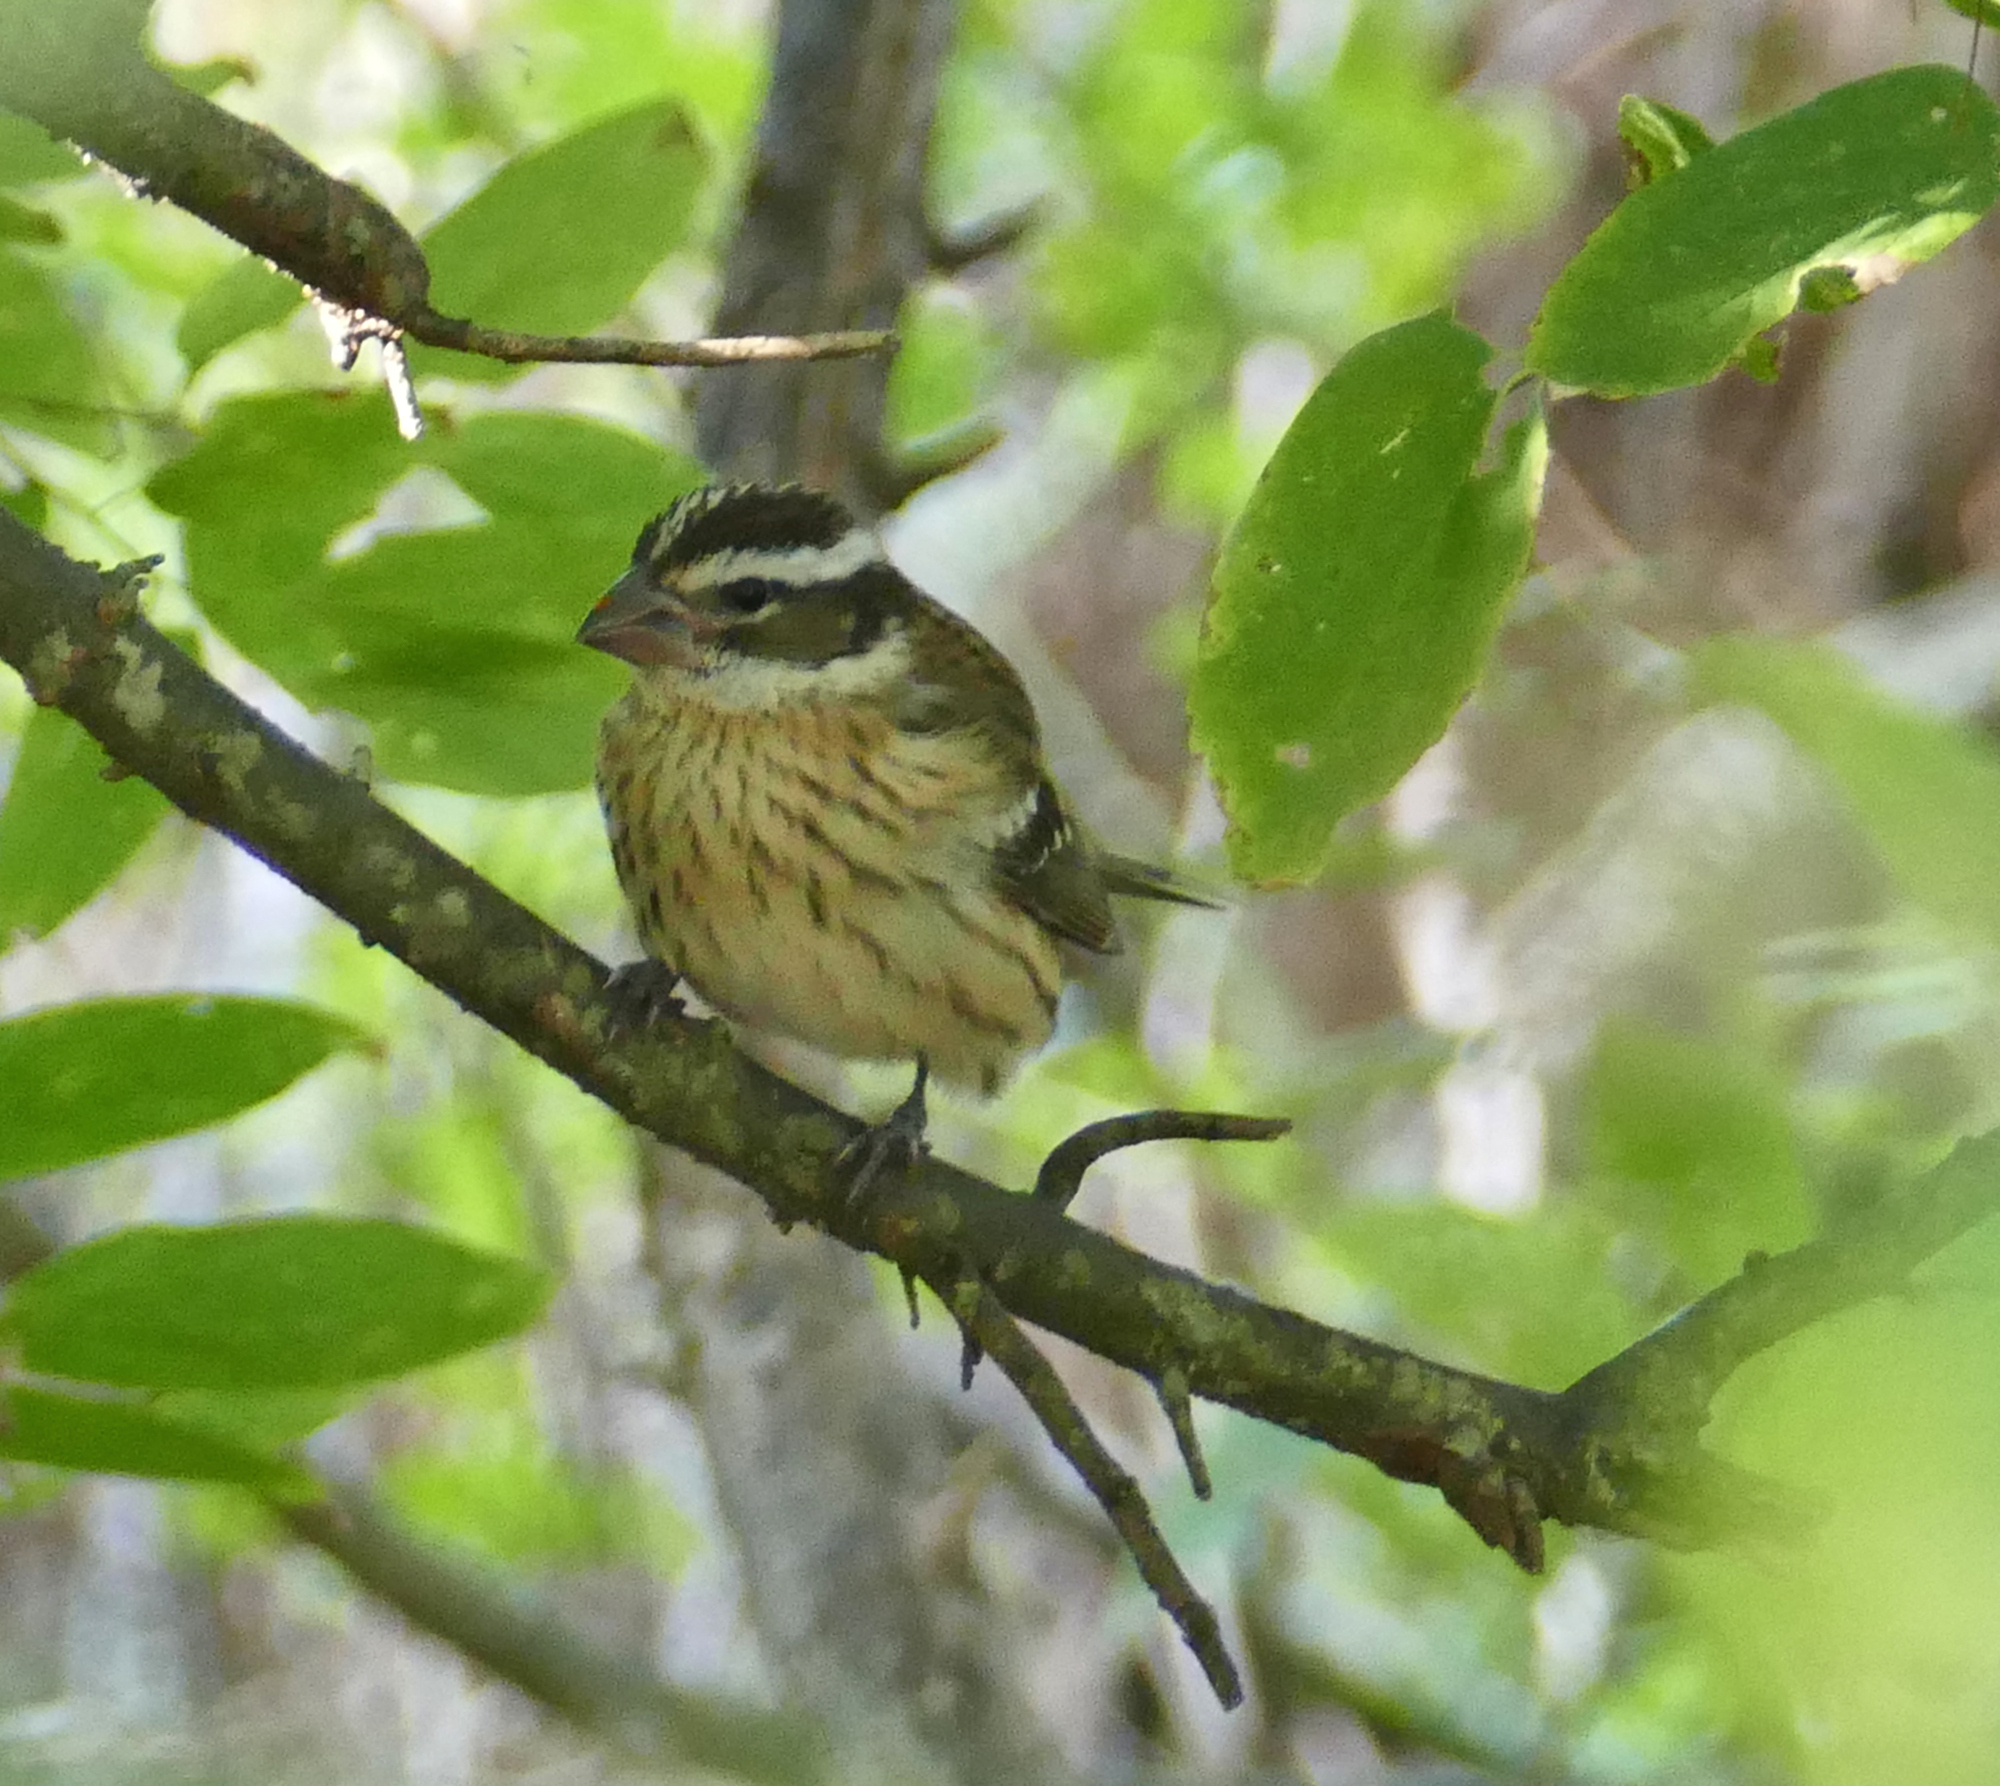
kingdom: Animalia
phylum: Chordata
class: Aves
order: Passeriformes
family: Cardinalidae
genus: Pheucticus
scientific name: Pheucticus ludovicianus
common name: Rose-breasted grosbeak
